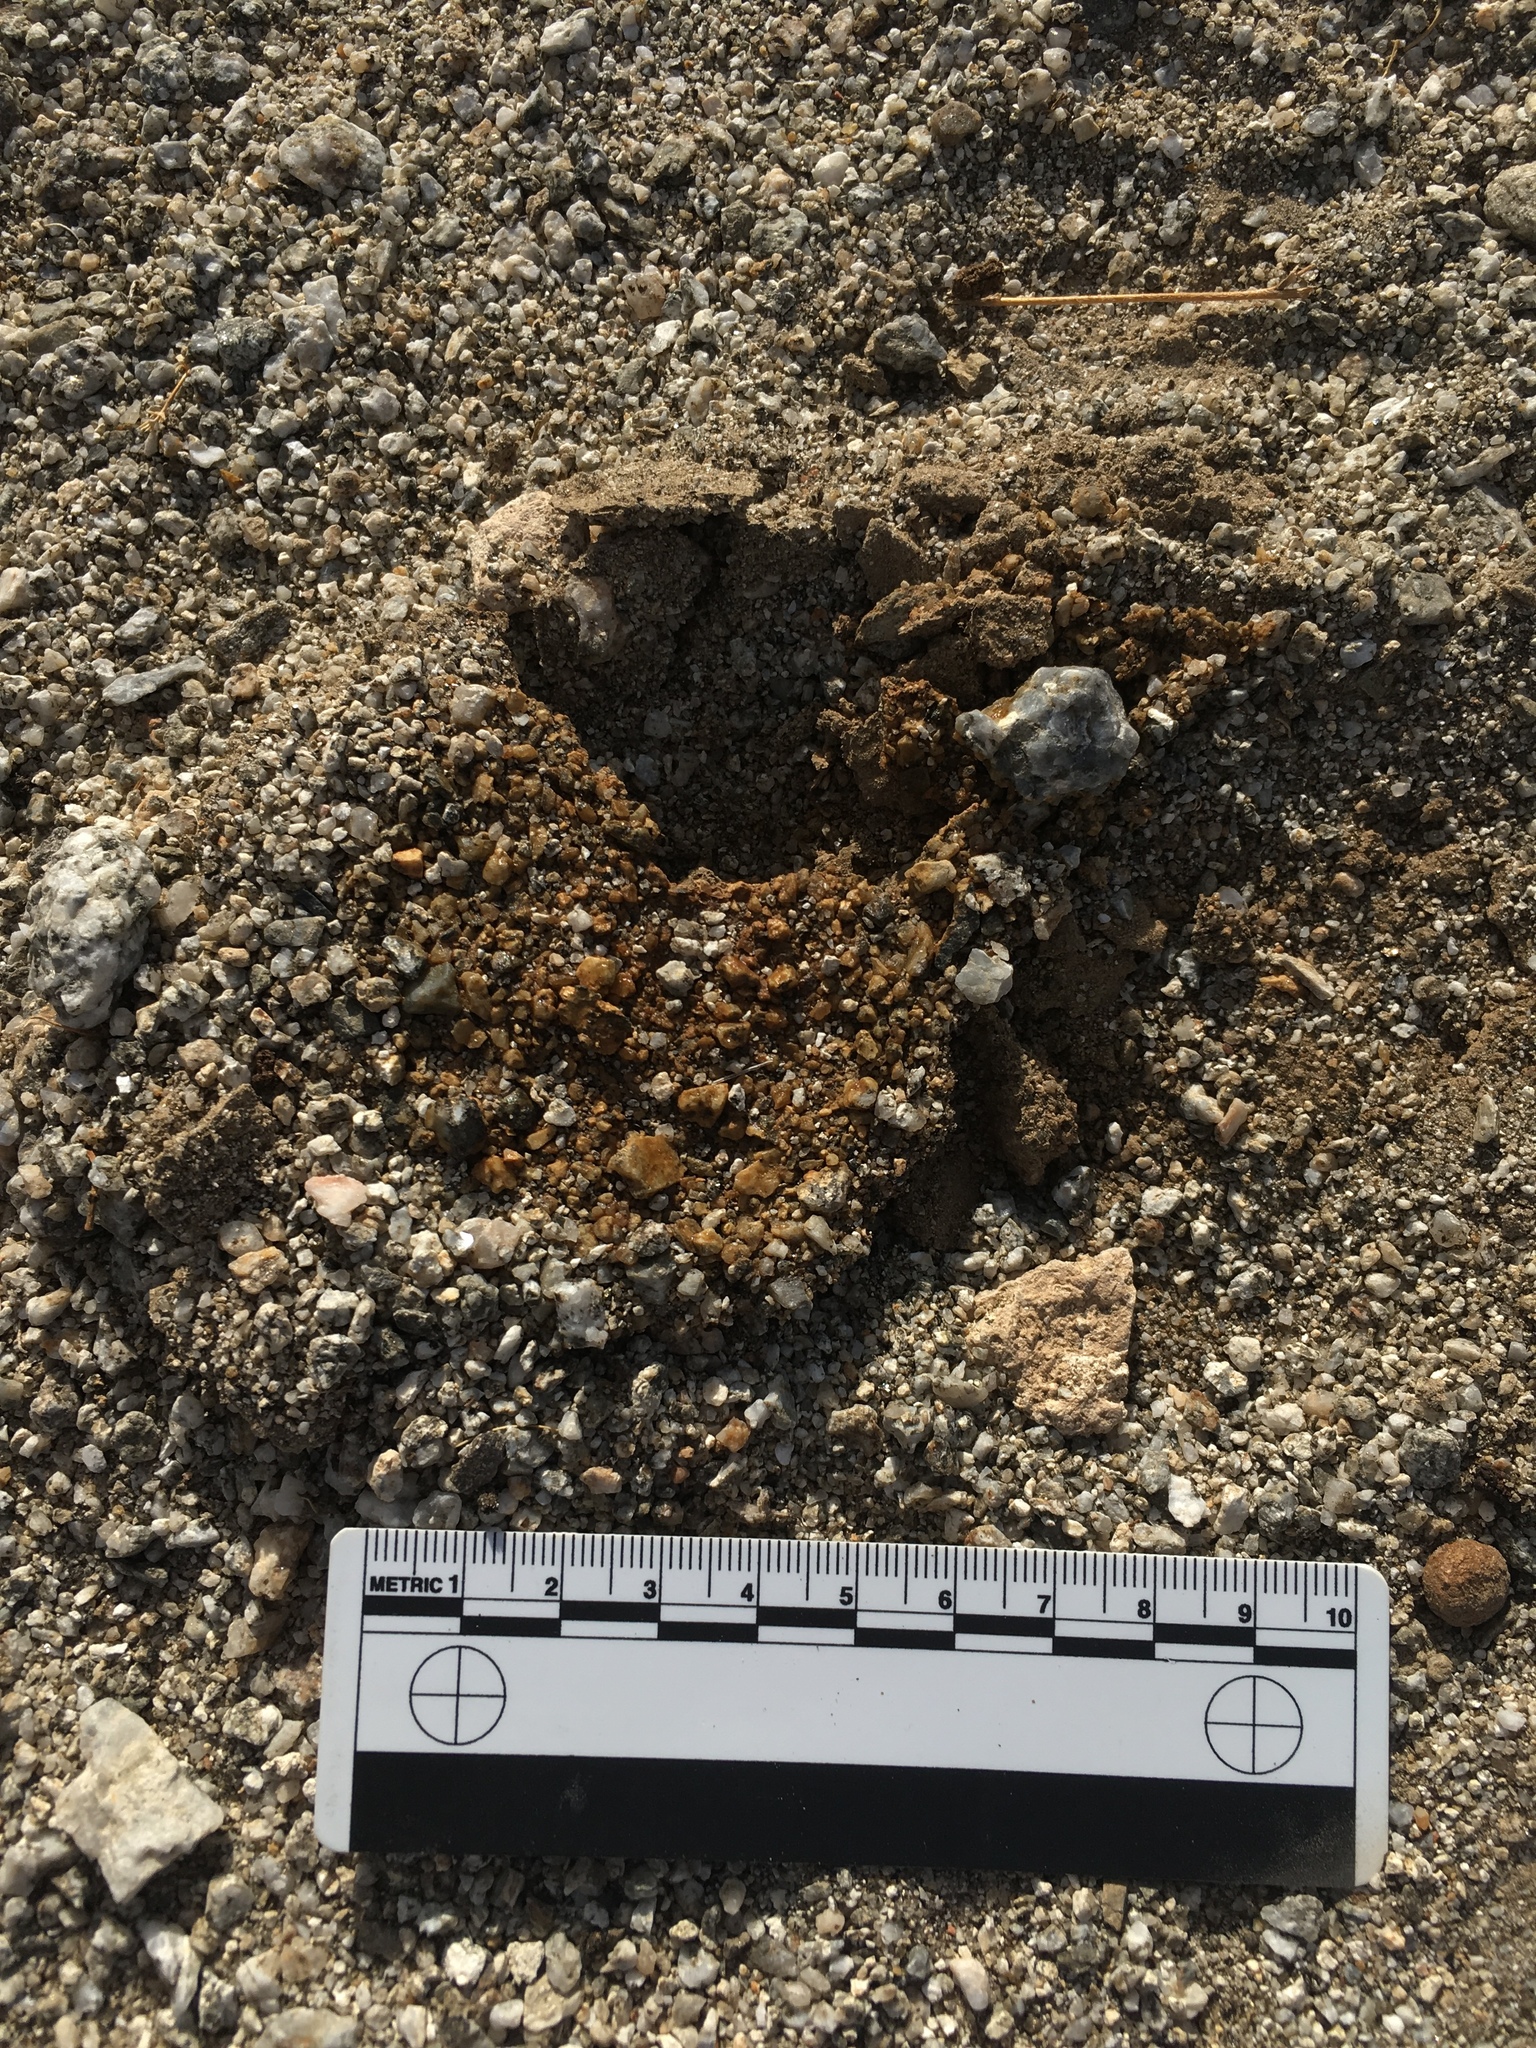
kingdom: Animalia
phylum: Chordata
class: Mammalia
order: Lagomorpha
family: Leporidae
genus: Lepus
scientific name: Lepus californicus
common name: Black-tailed jackrabbit
